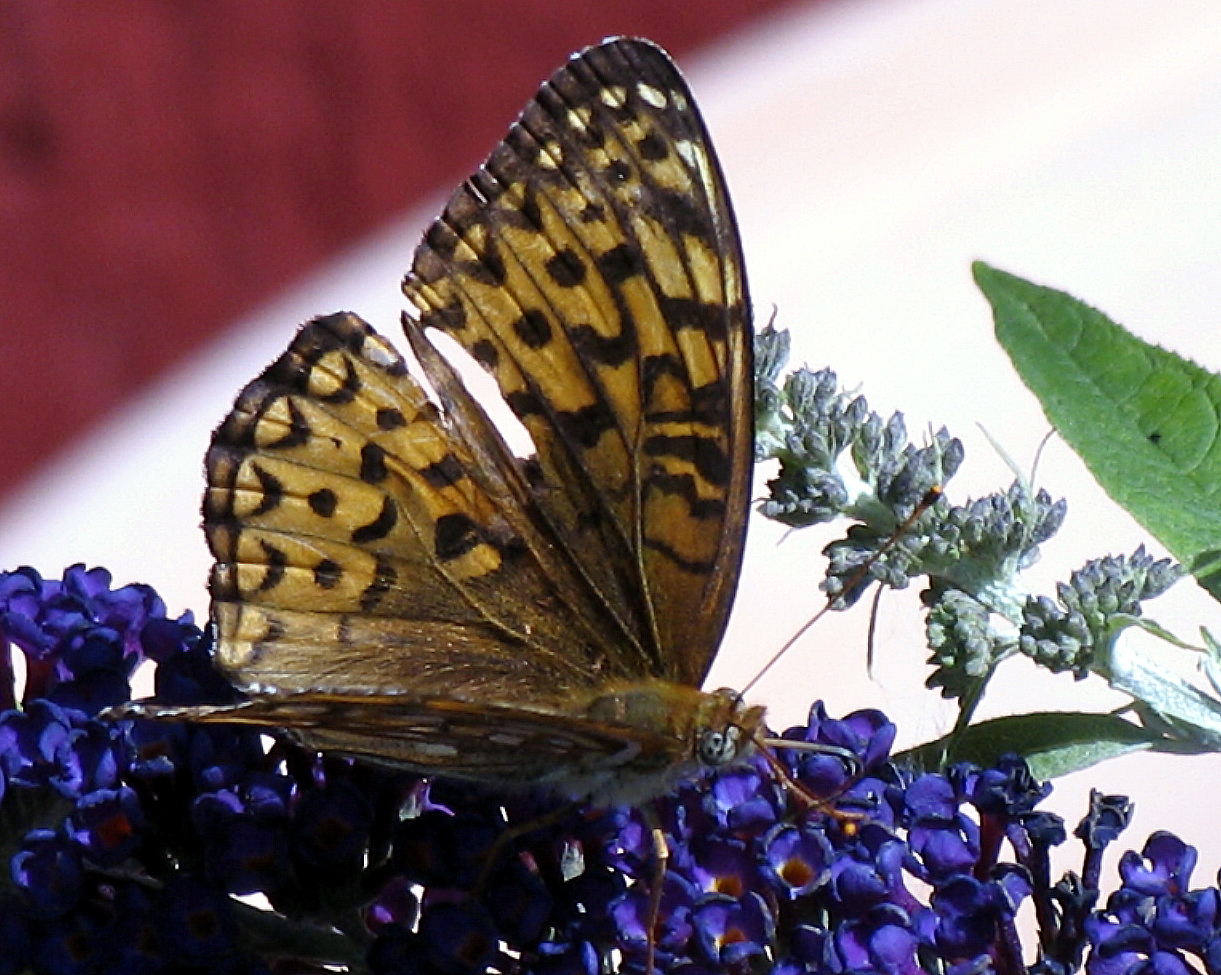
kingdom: Animalia
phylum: Arthropoda
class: Insecta
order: Lepidoptera
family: Nymphalidae
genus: Speyeria
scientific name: Speyeria atlantis
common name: Atlantis fritillary
